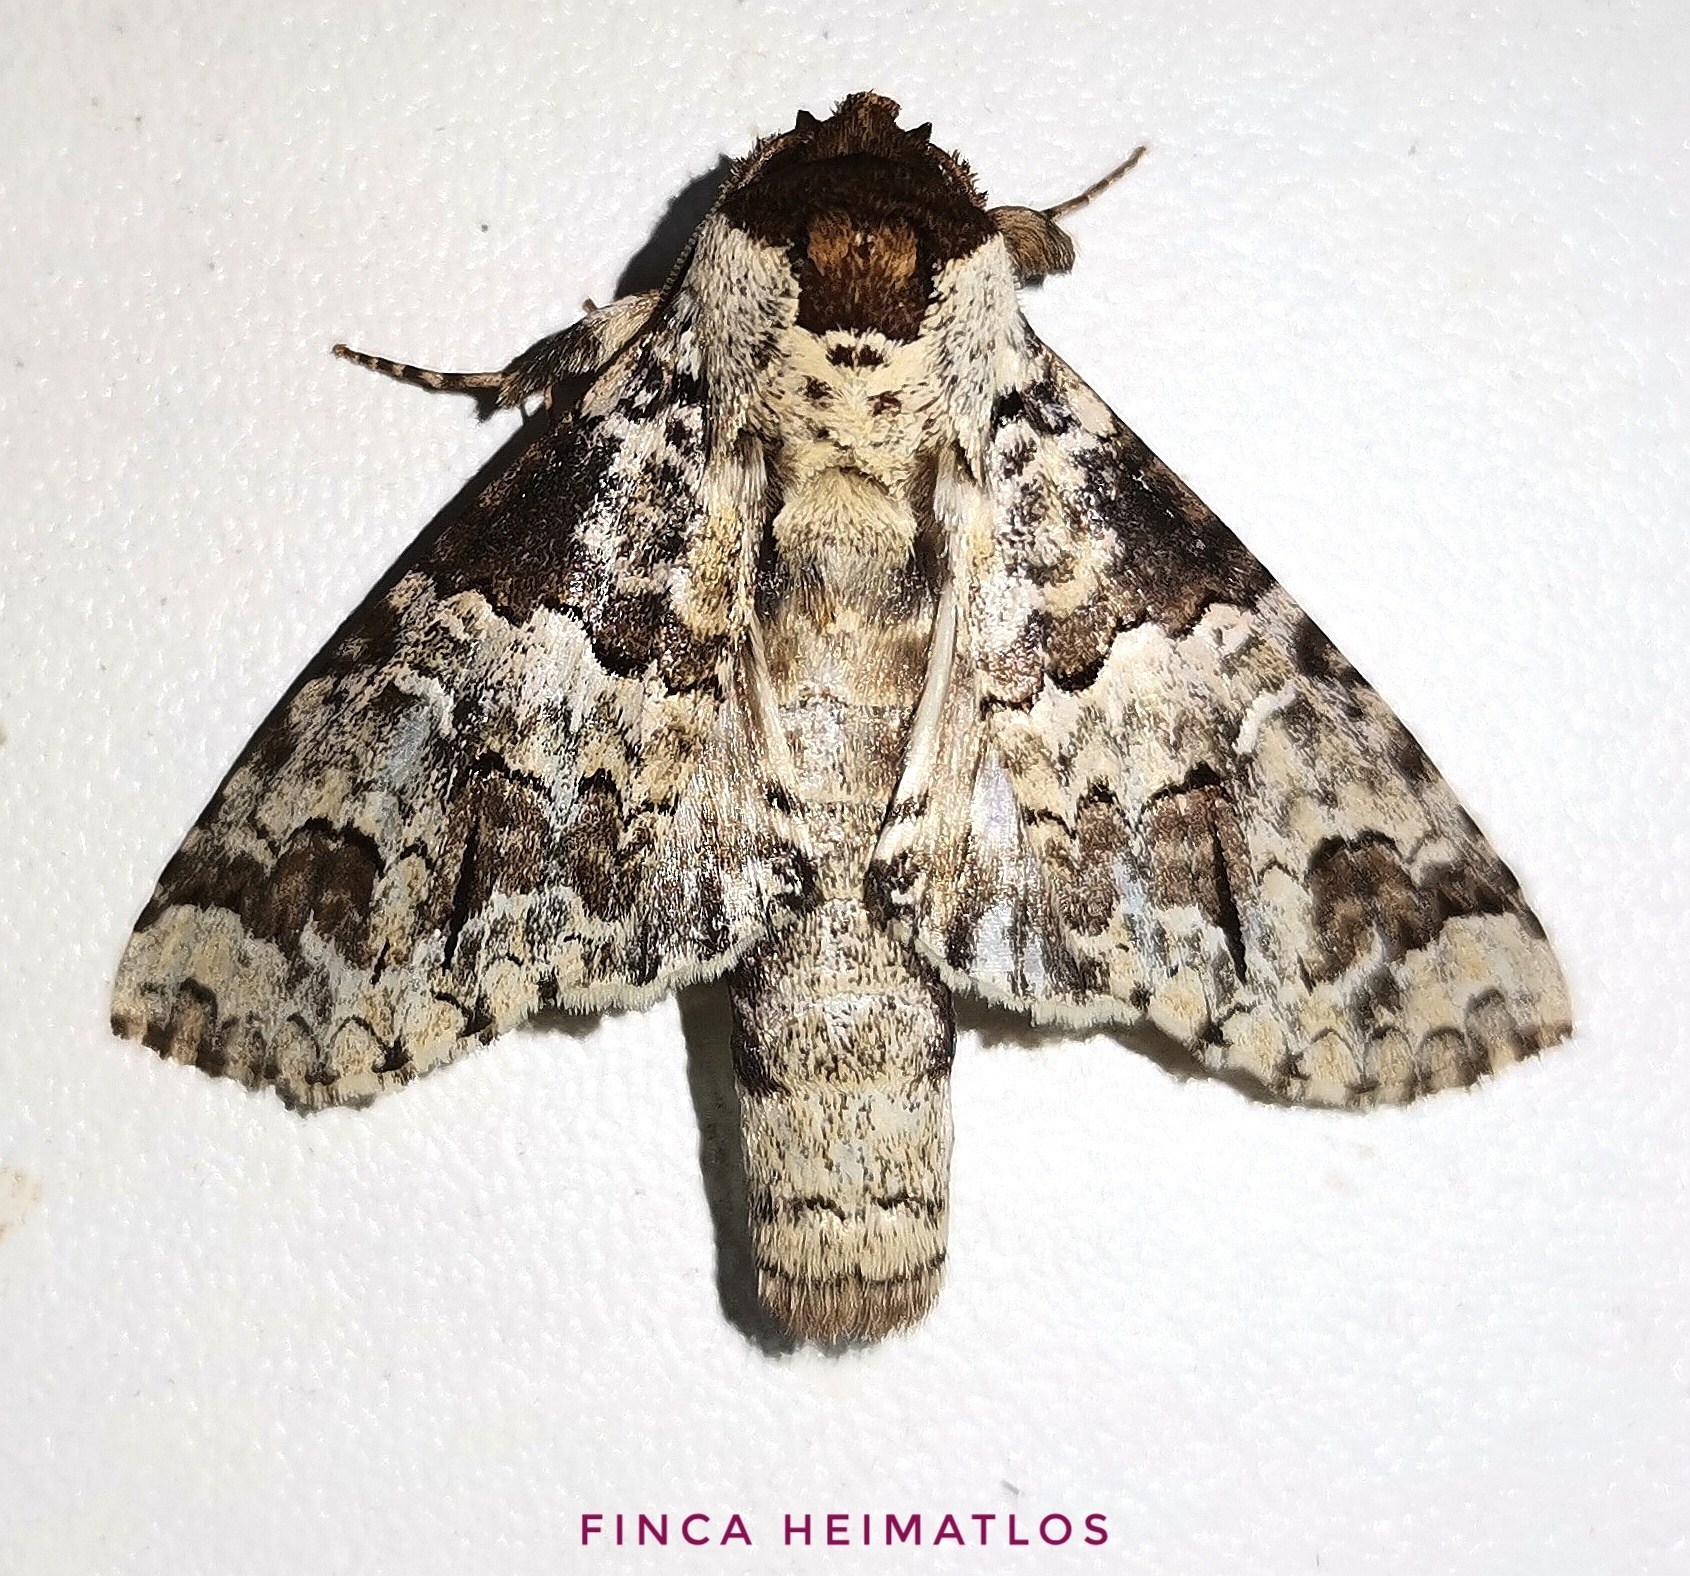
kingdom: Animalia
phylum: Arthropoda
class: Insecta
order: Lepidoptera
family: Notodontidae
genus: Sericochroa
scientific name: Sericochroa hymen
